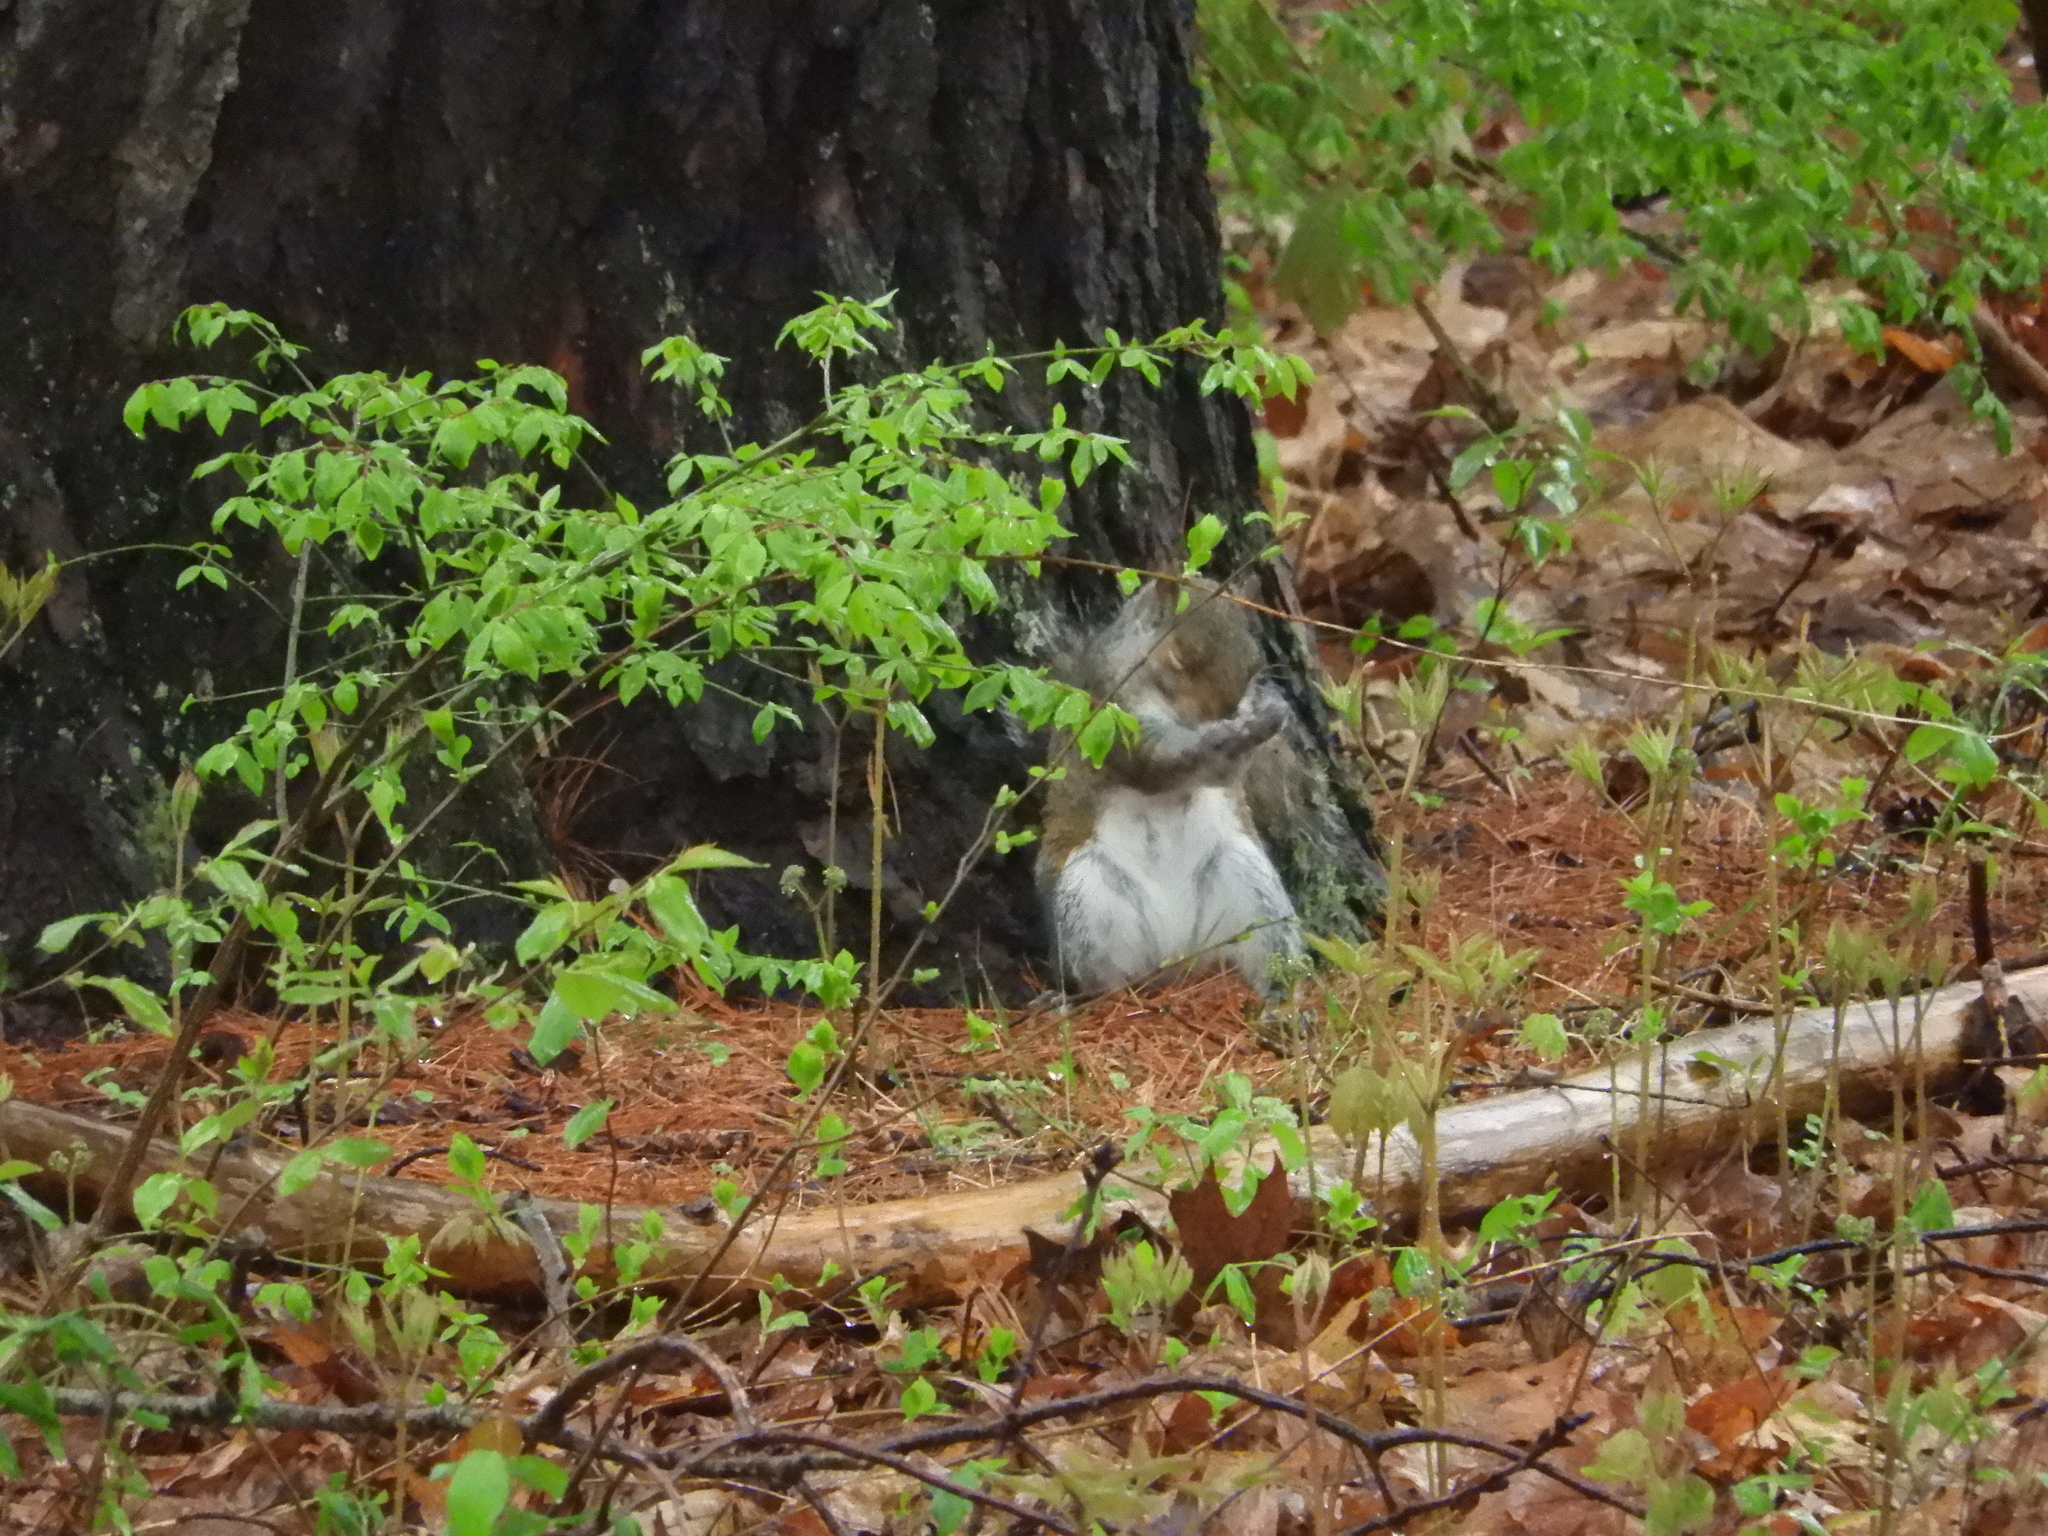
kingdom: Animalia
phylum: Chordata
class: Mammalia
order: Rodentia
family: Sciuridae
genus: Sciurus
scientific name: Sciurus carolinensis
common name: Eastern gray squirrel
